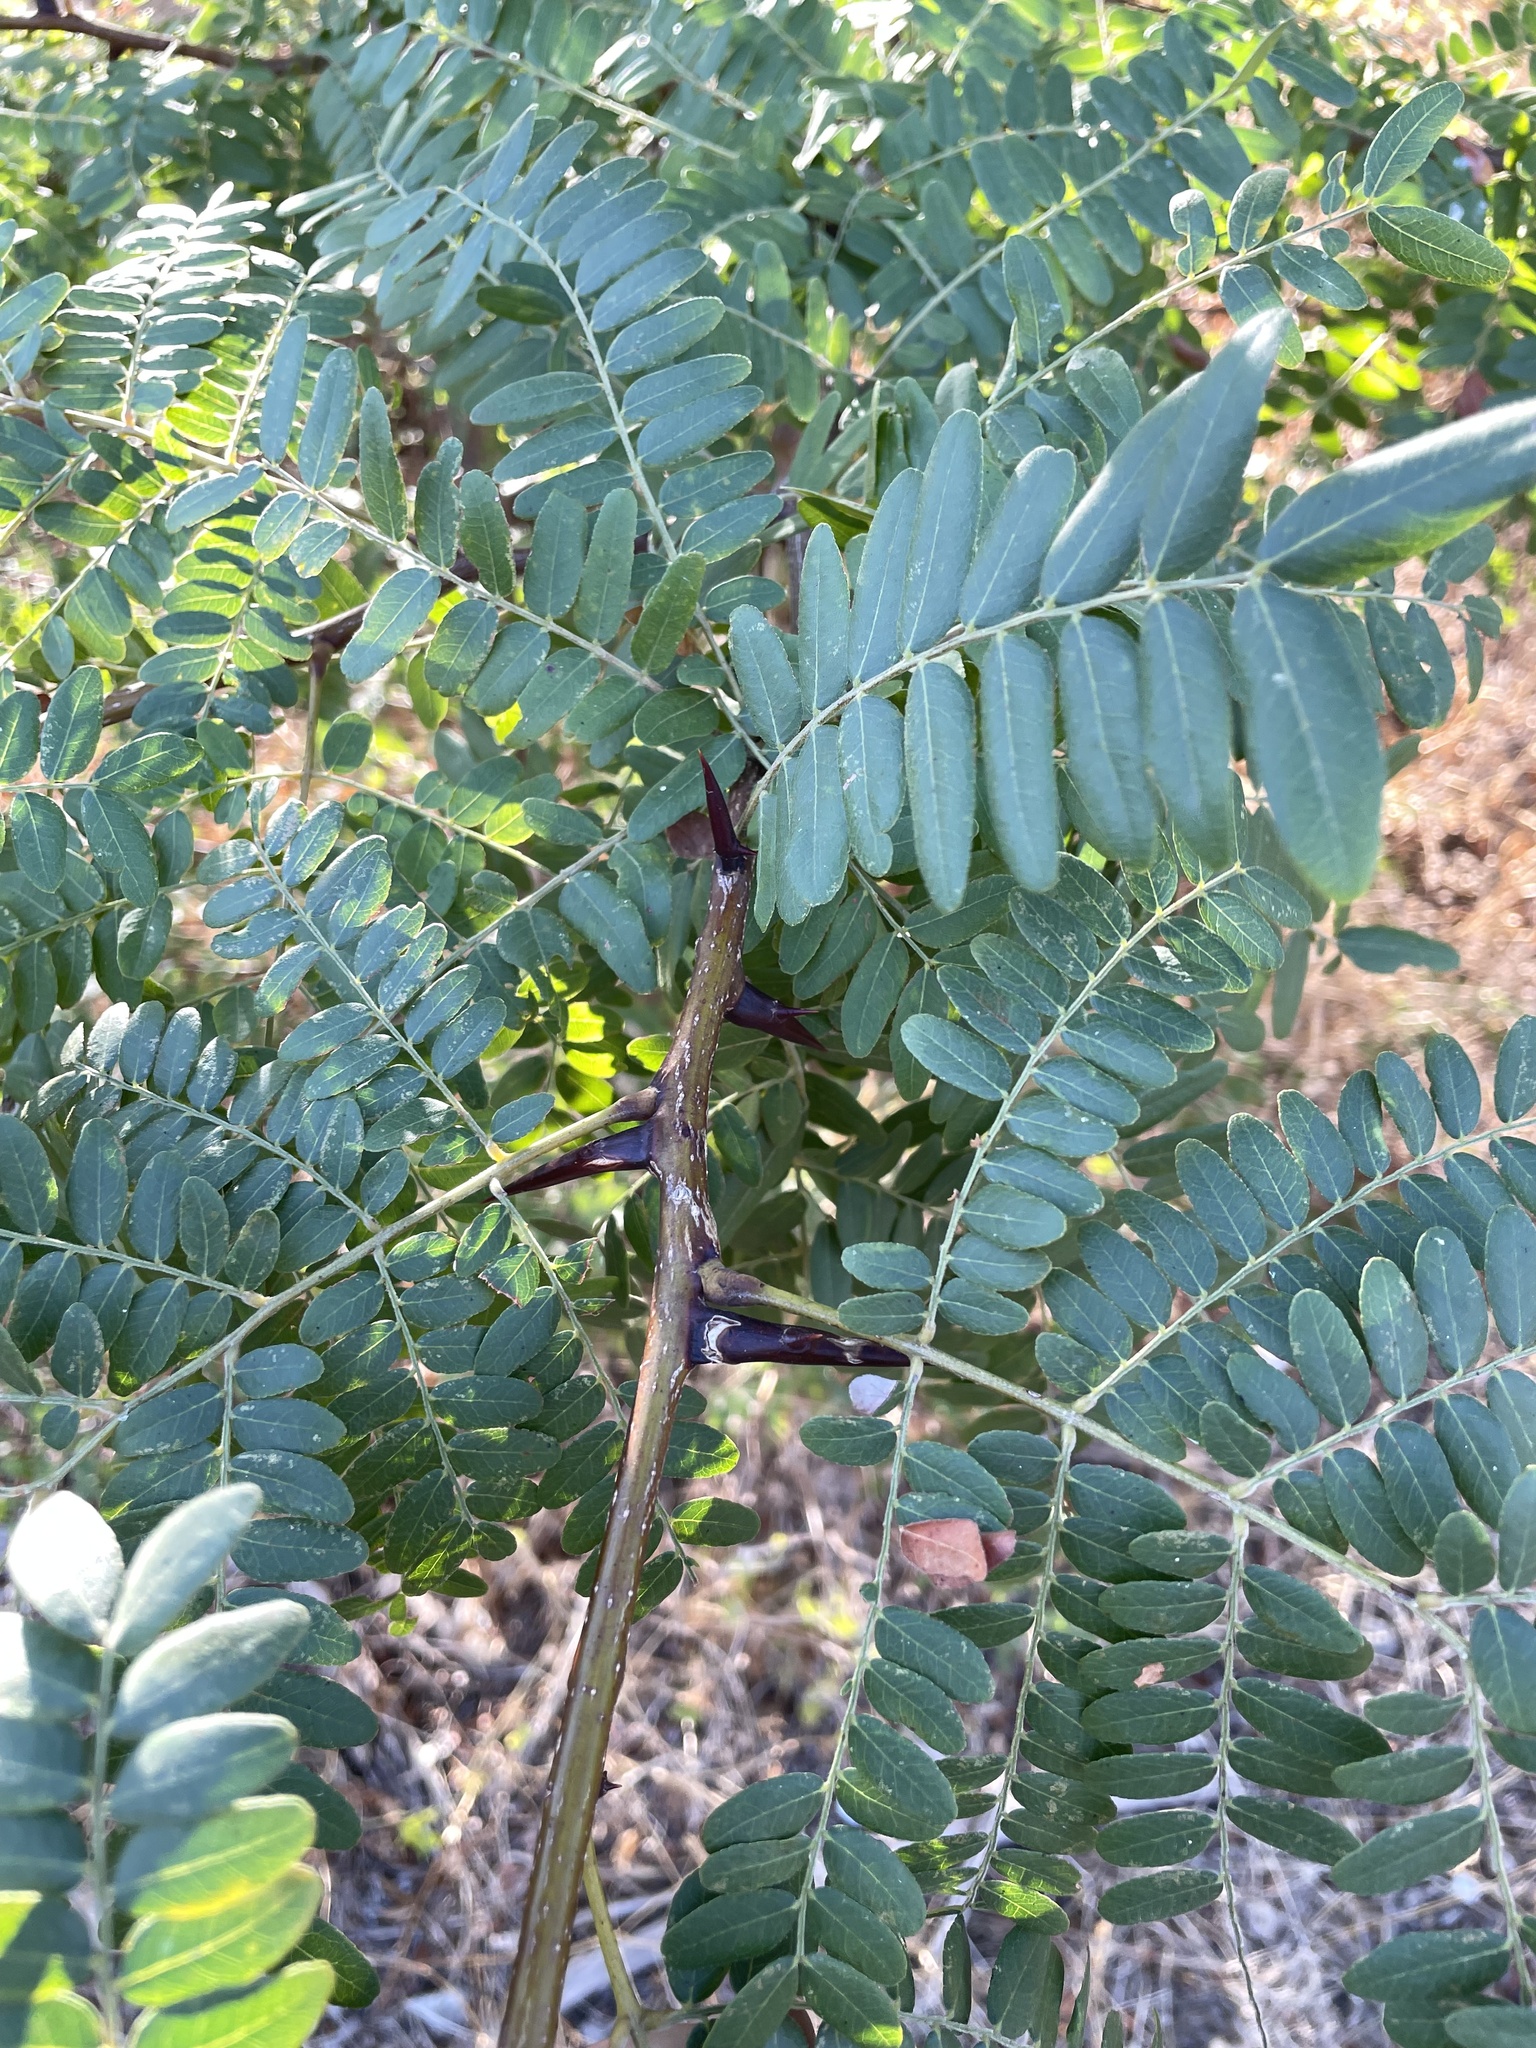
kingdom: Plantae
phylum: Tracheophyta
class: Magnoliopsida
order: Fabales
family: Fabaceae
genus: Gleditsia
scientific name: Gleditsia triacanthos
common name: Common honeylocust
